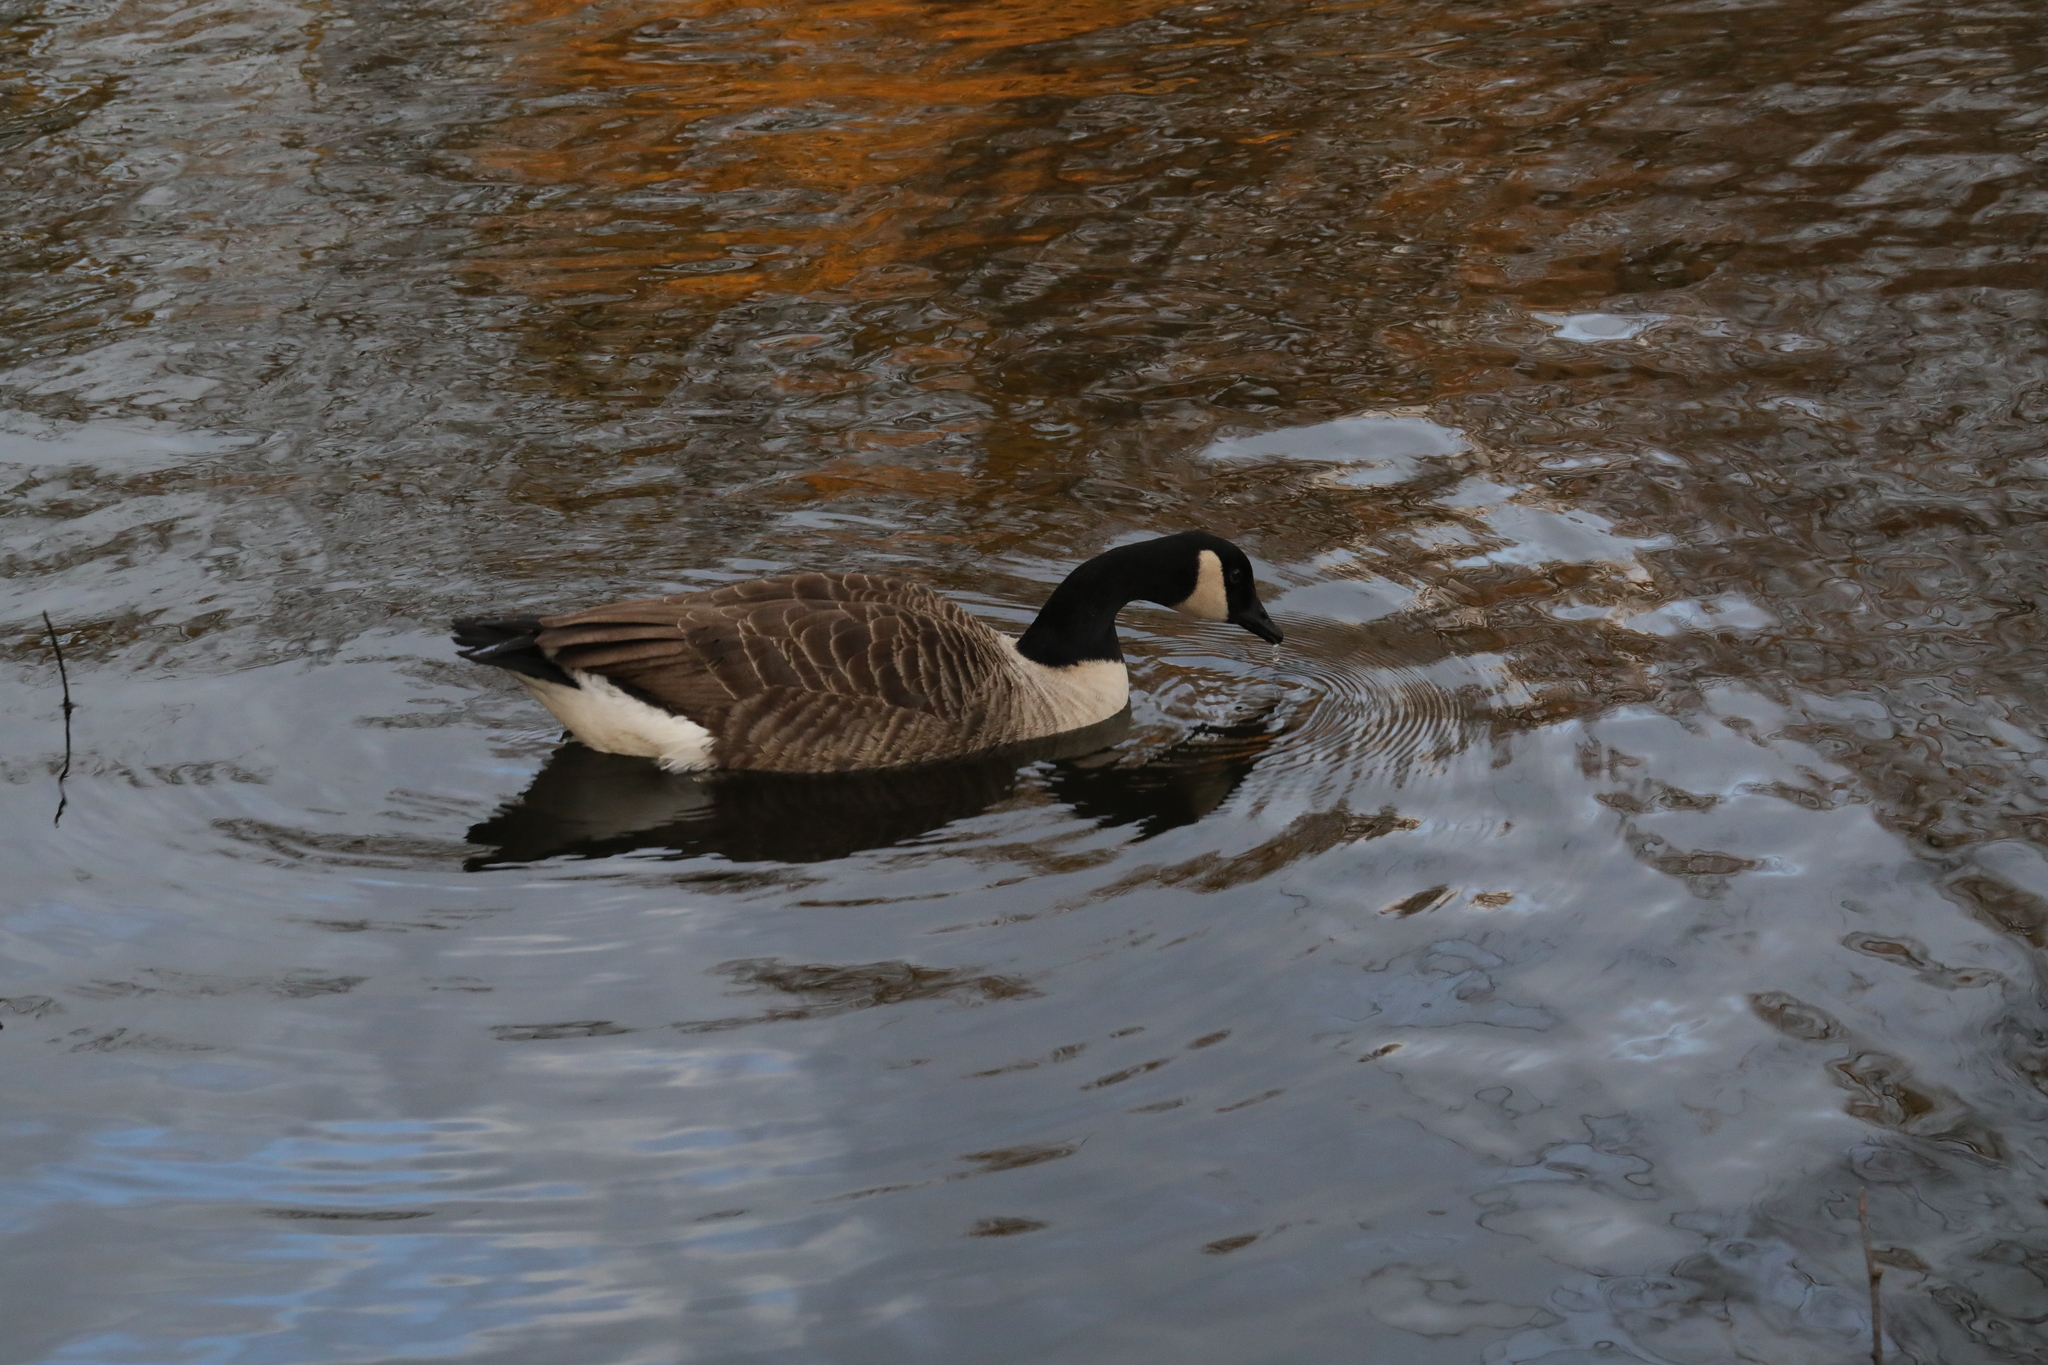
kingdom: Animalia
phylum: Chordata
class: Aves
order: Anseriformes
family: Anatidae
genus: Branta
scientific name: Branta canadensis
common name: Canada goose
